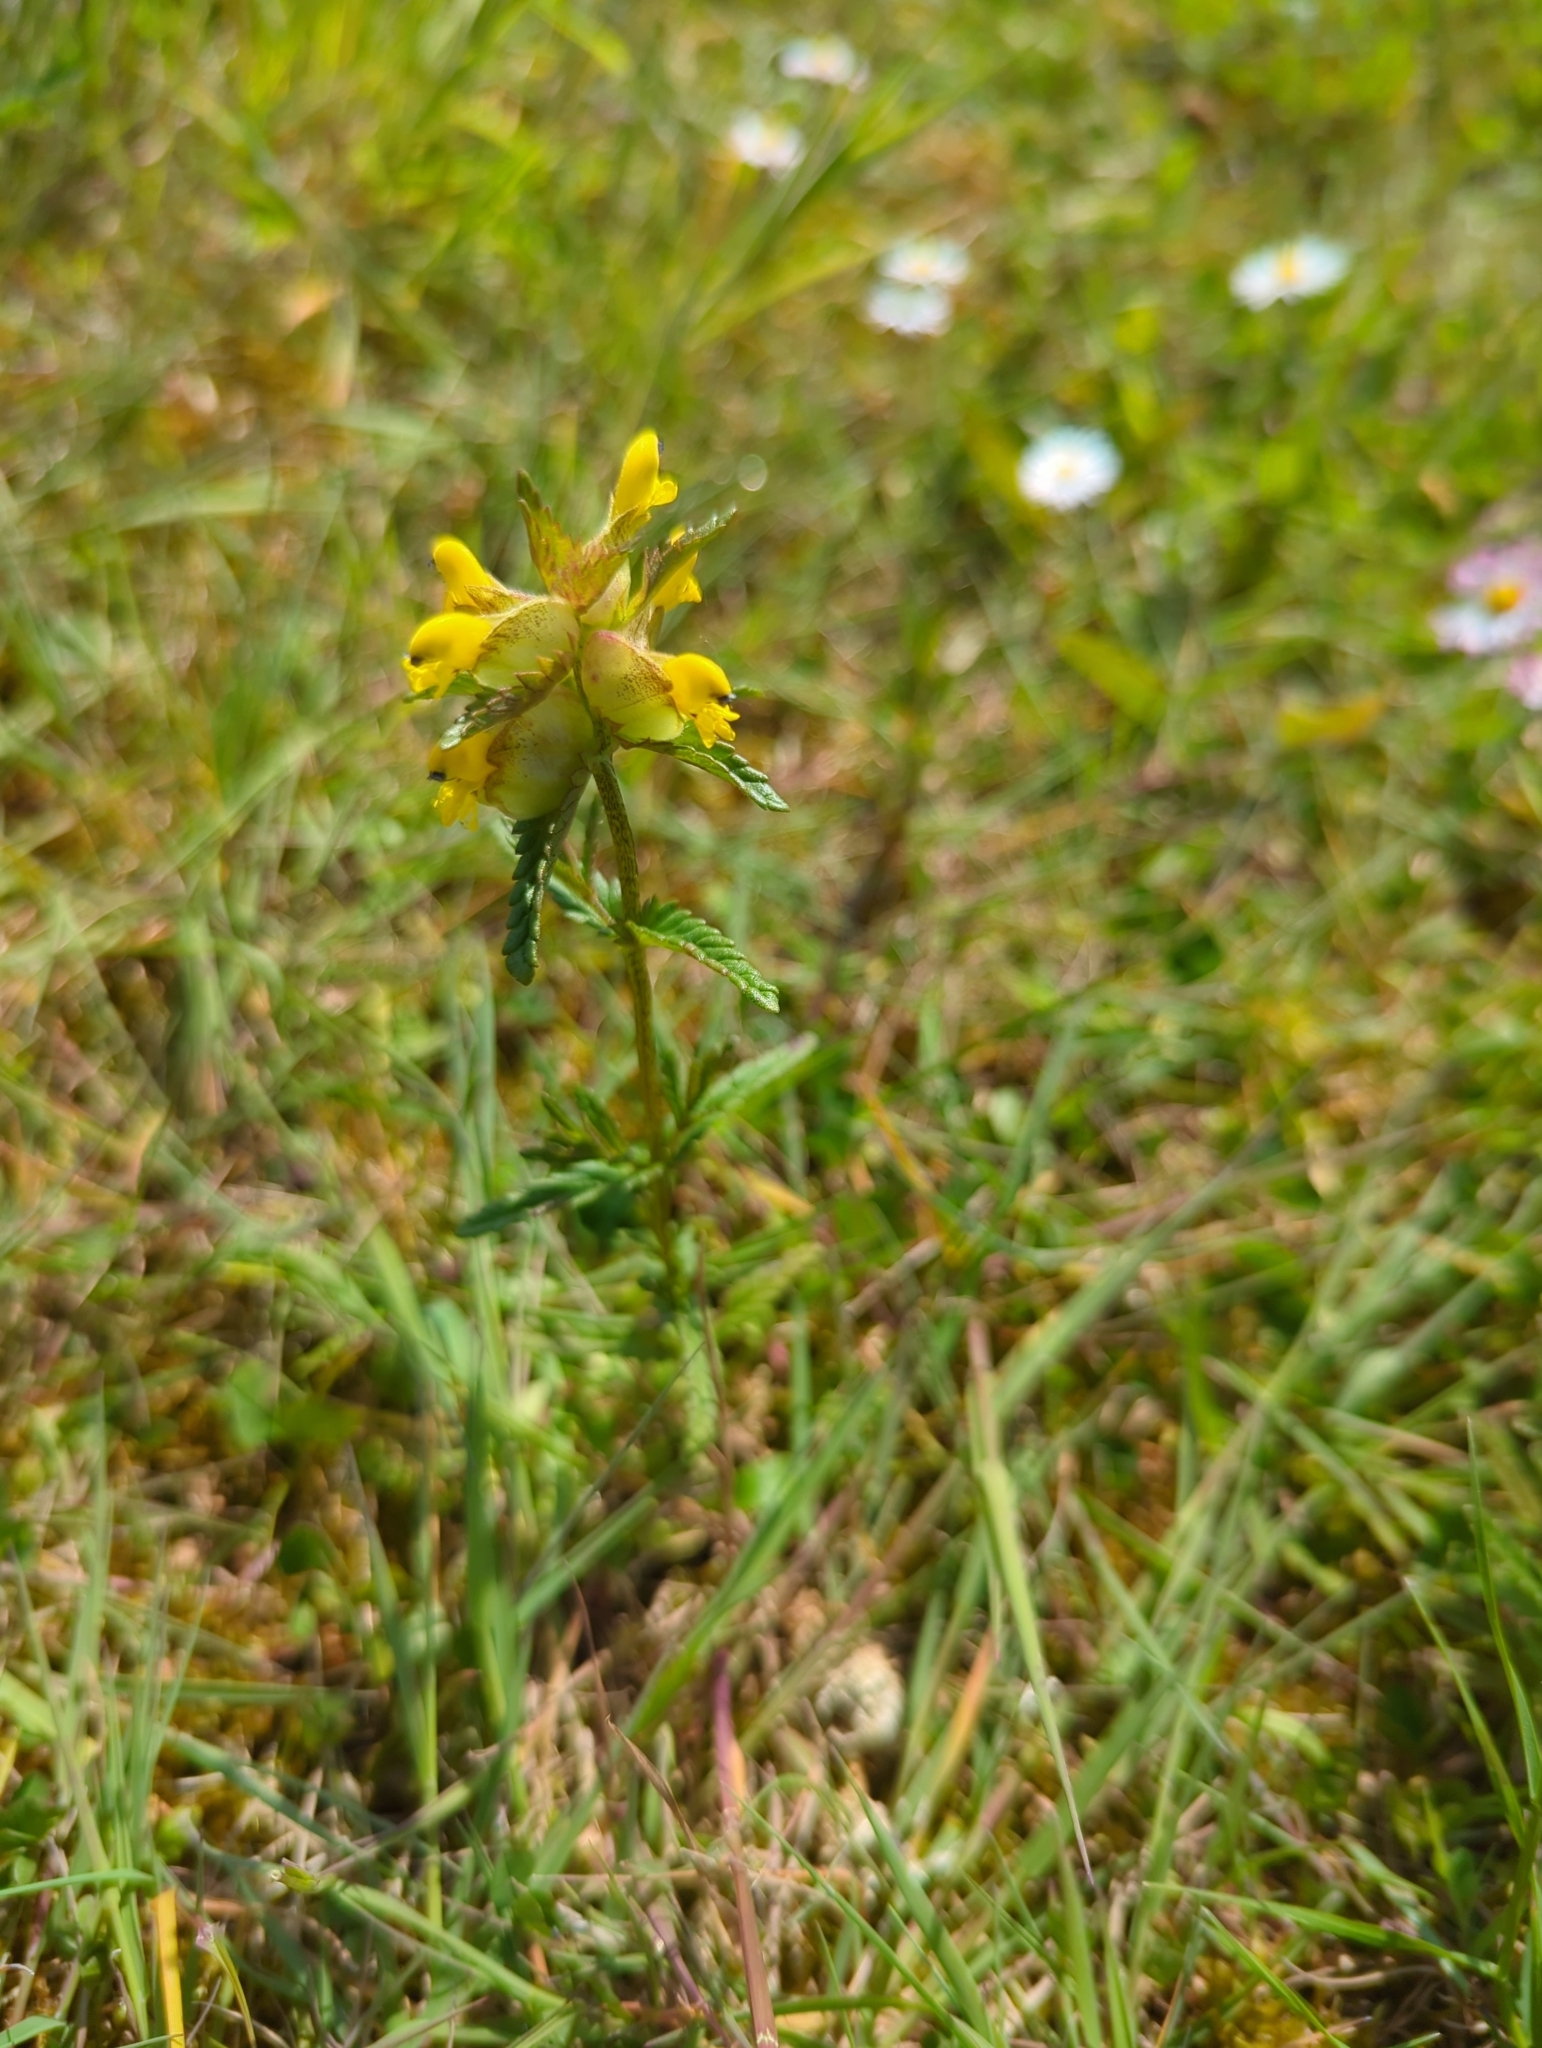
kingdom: Plantae
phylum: Tracheophyta
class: Magnoliopsida
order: Lamiales
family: Orobanchaceae
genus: Rhinanthus
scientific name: Rhinanthus minor
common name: Yellow-rattle
